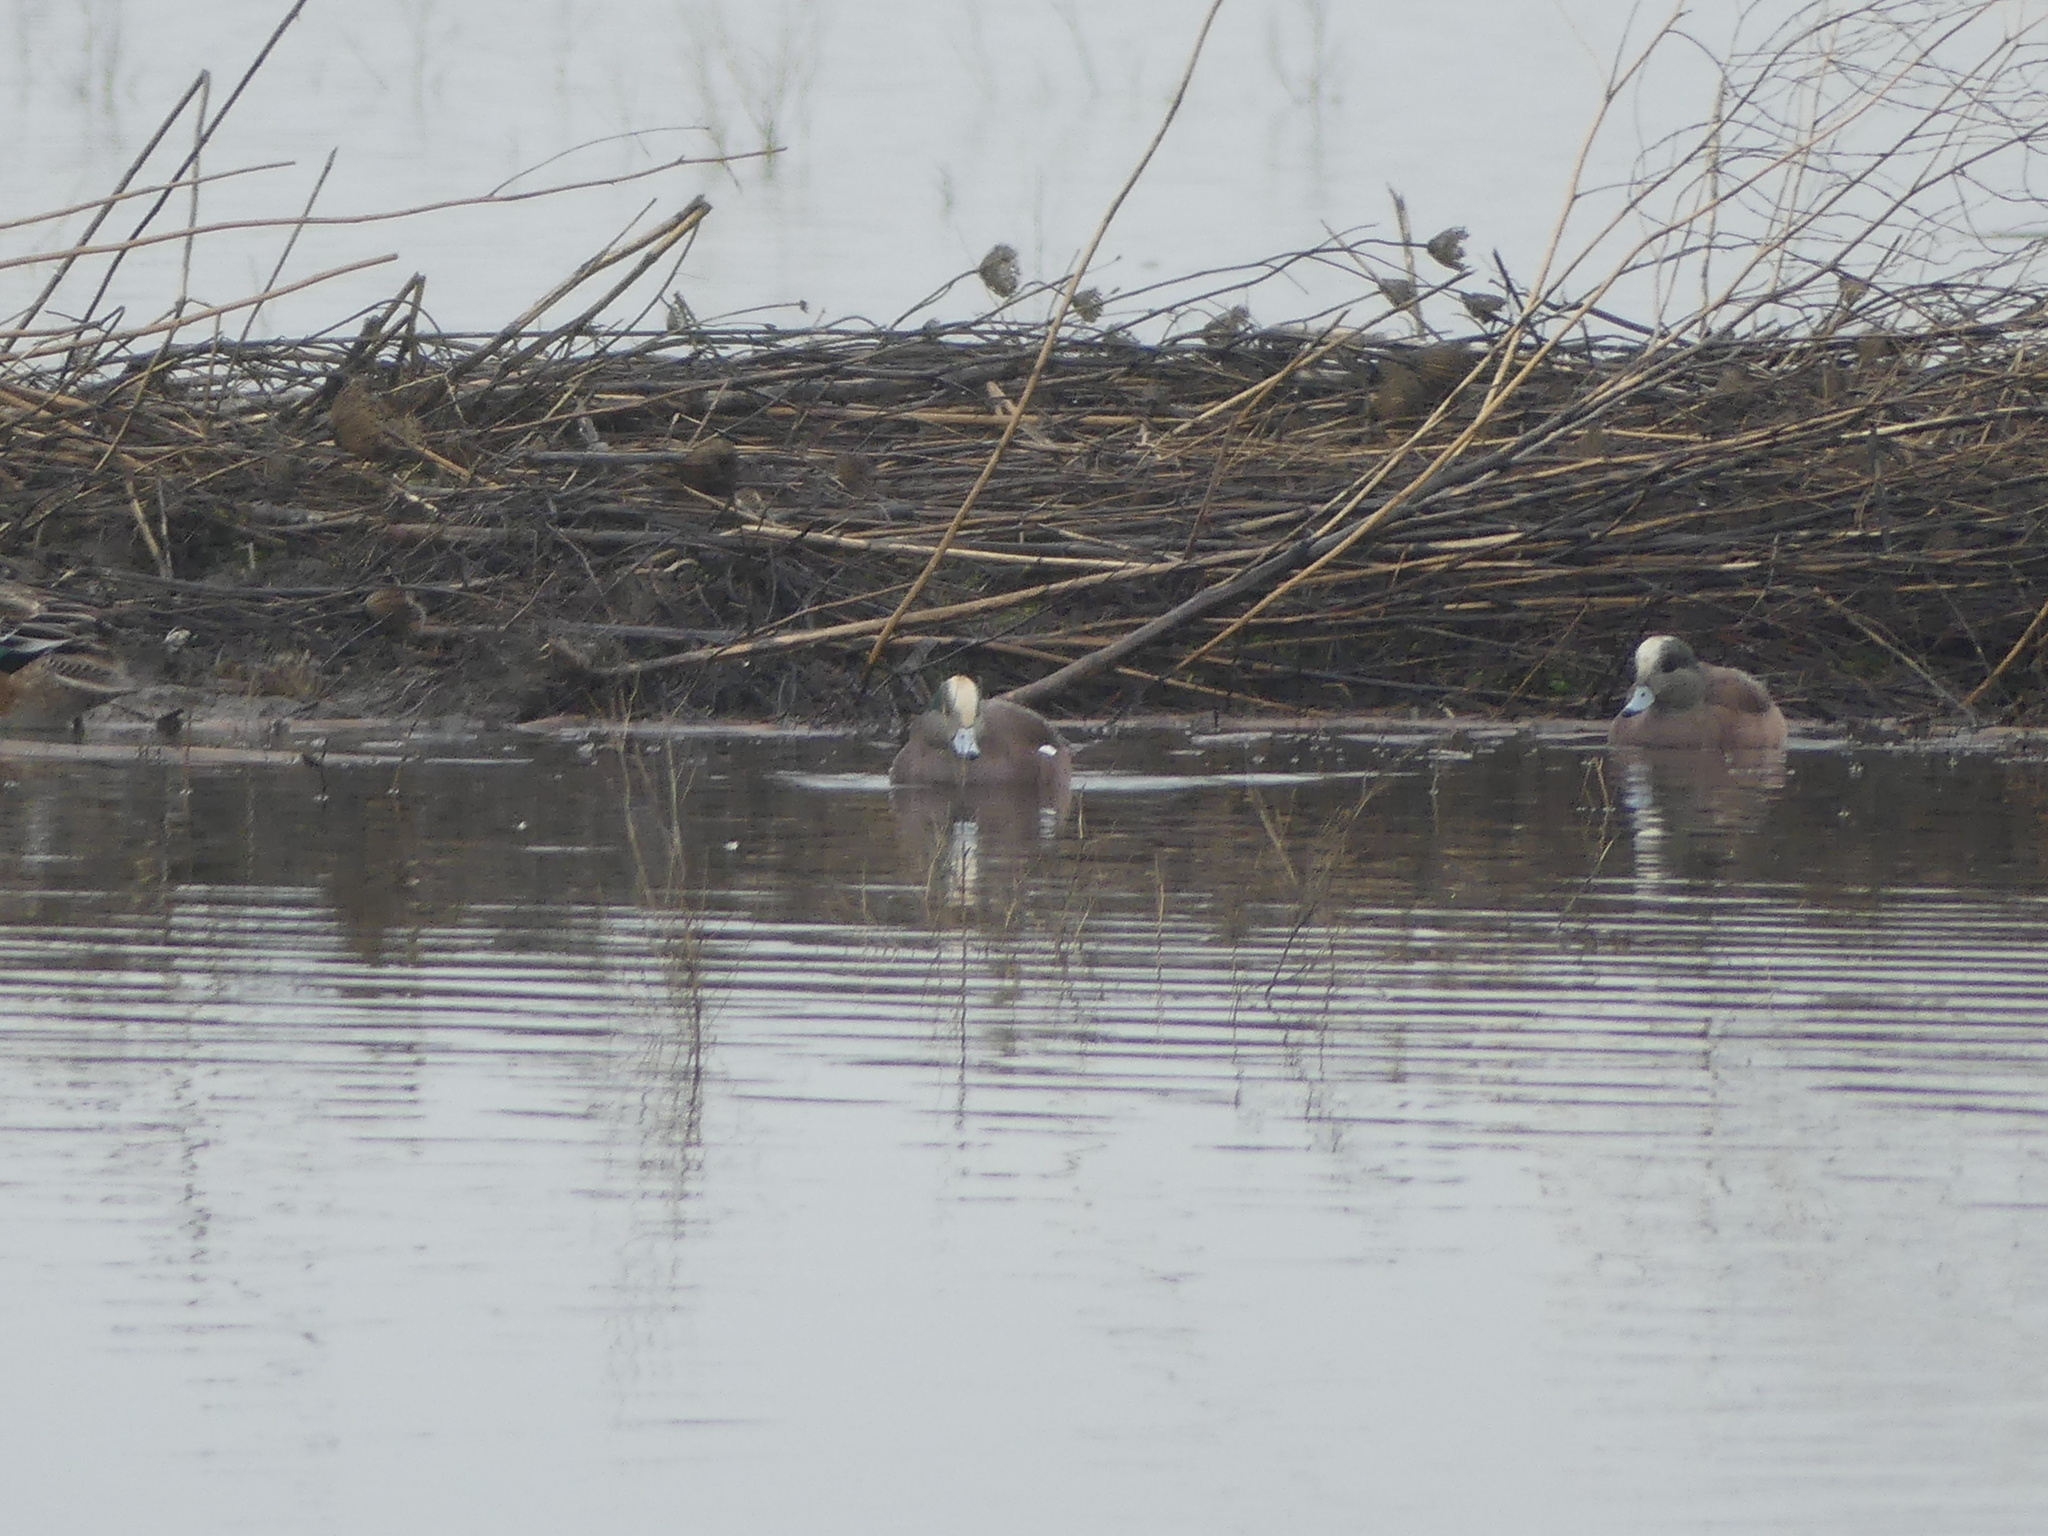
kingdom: Animalia
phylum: Chordata
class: Aves
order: Anseriformes
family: Anatidae
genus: Mareca
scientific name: Mareca americana
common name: American wigeon
